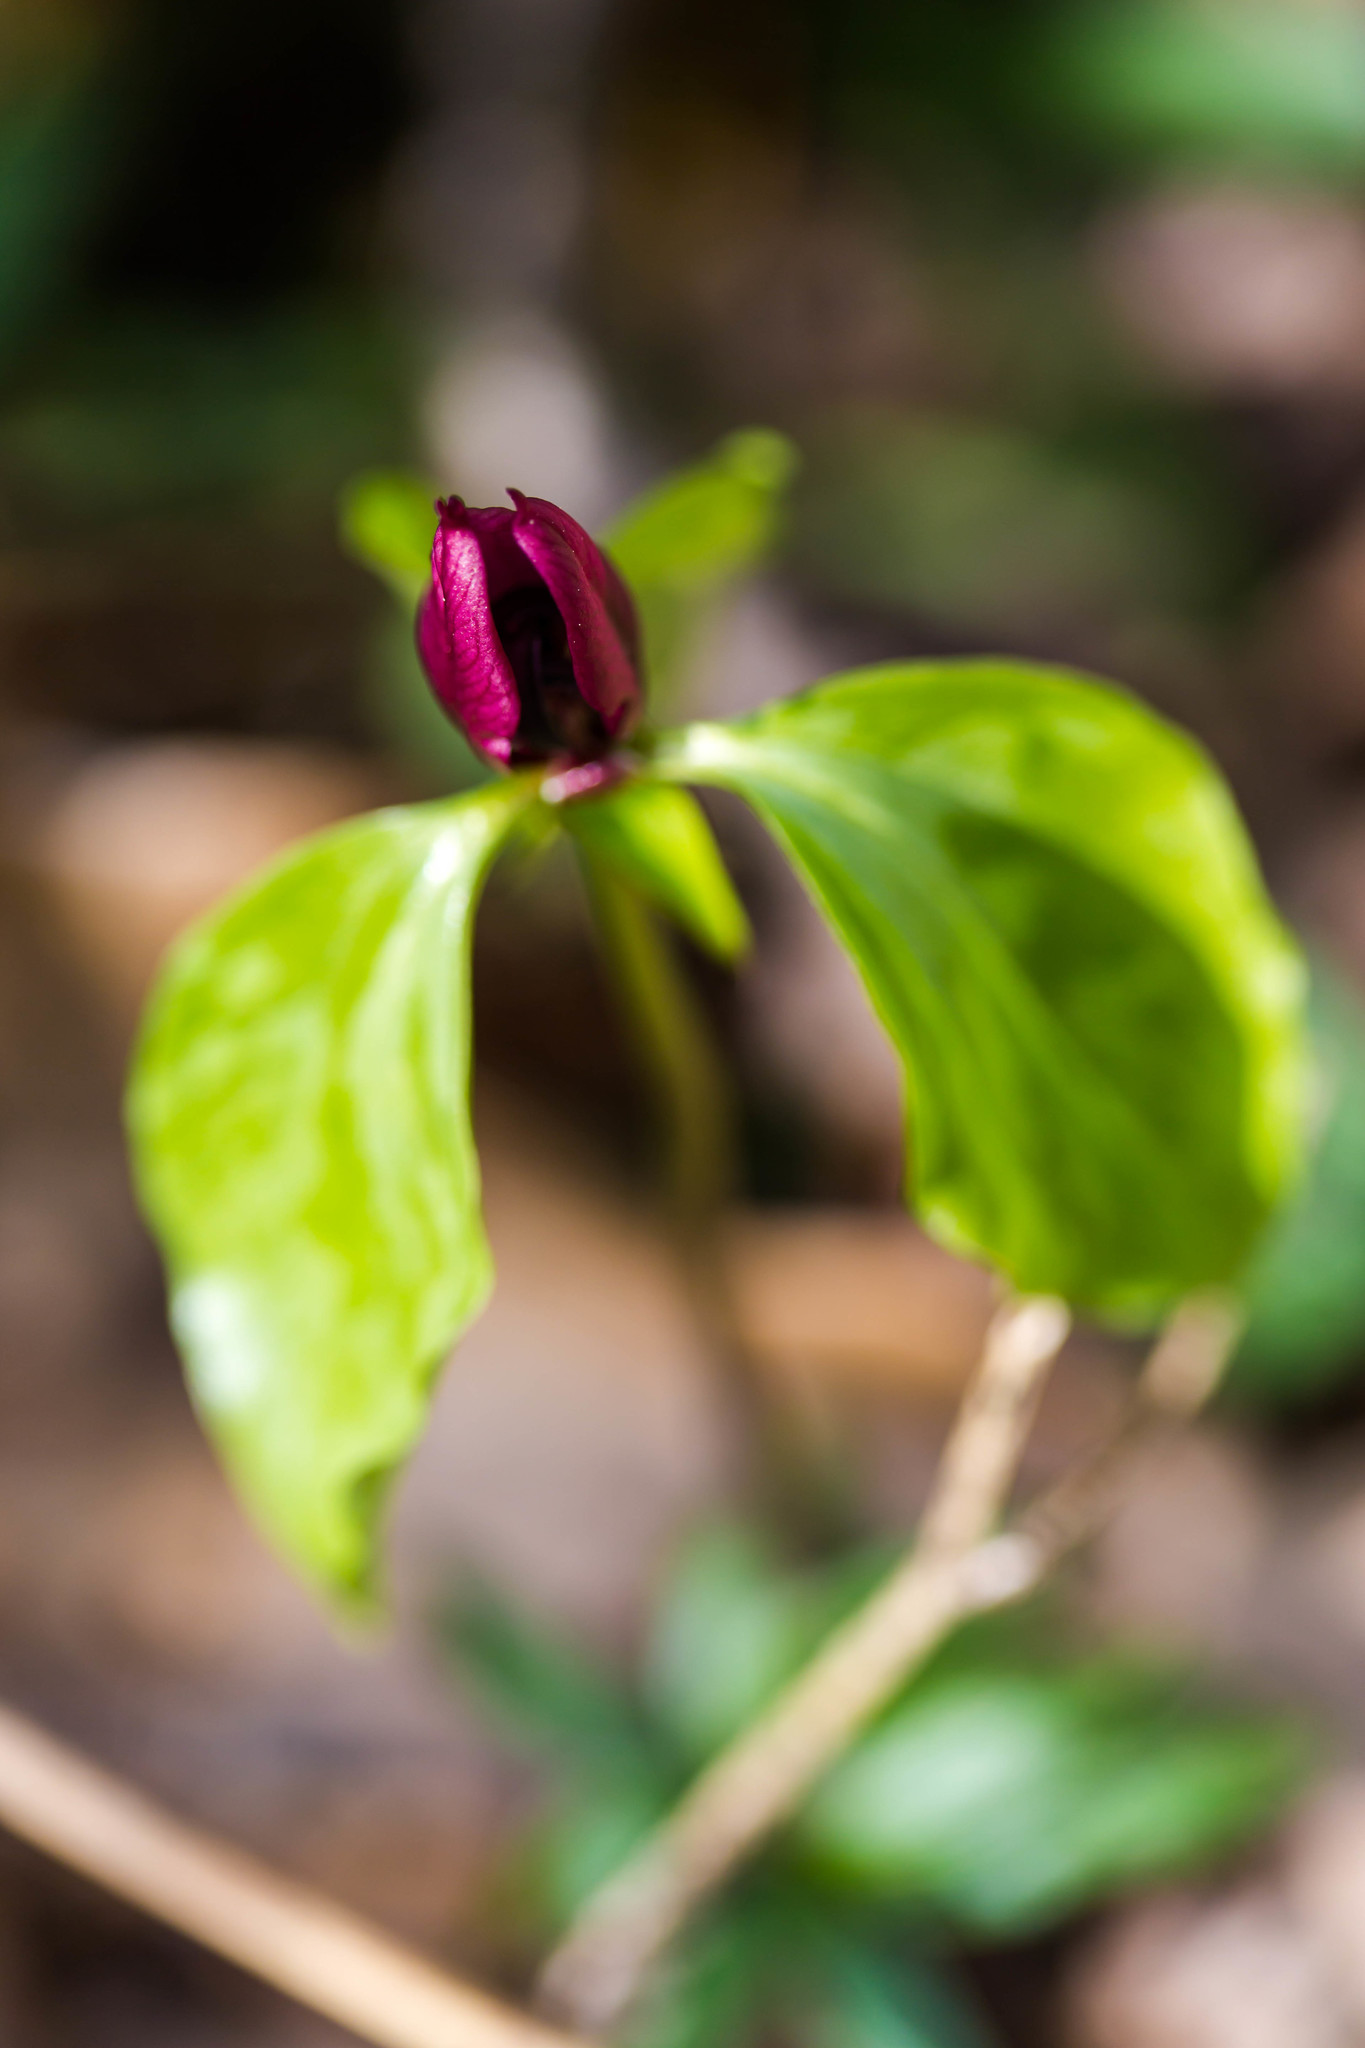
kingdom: Plantae
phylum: Tracheophyta
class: Liliopsida
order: Liliales
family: Melanthiaceae
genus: Trillium
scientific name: Trillium recurvatum
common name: Bloody butcher
